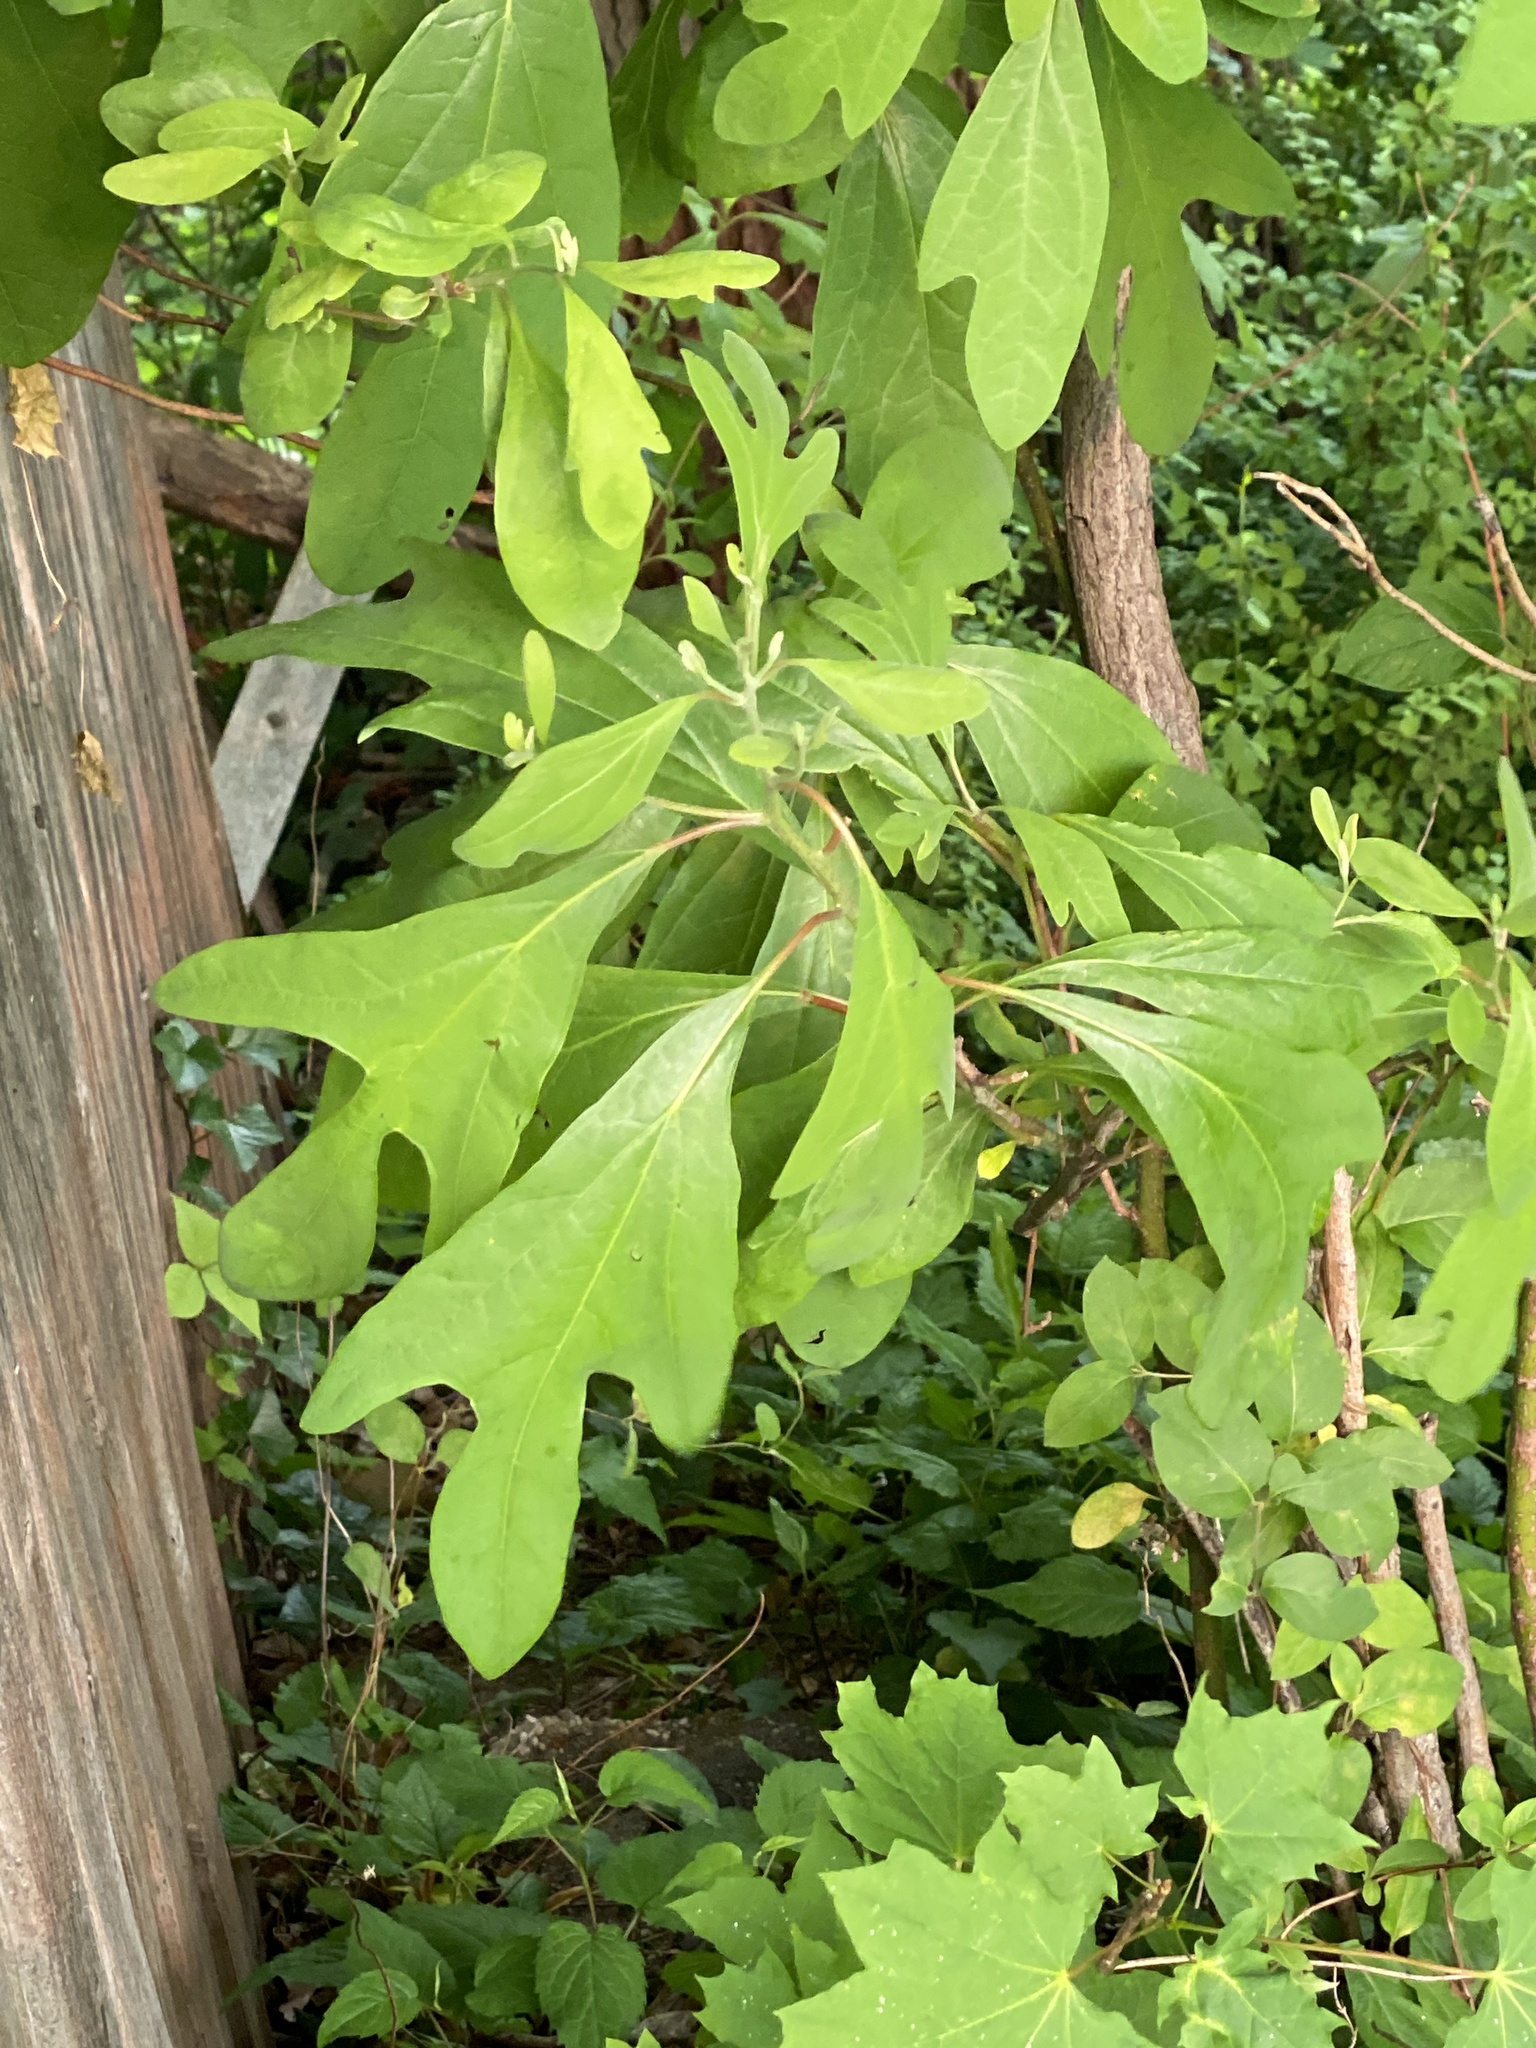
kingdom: Plantae
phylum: Tracheophyta
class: Magnoliopsida
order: Laurales
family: Lauraceae
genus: Sassafras
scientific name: Sassafras albidum
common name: Sassafras
